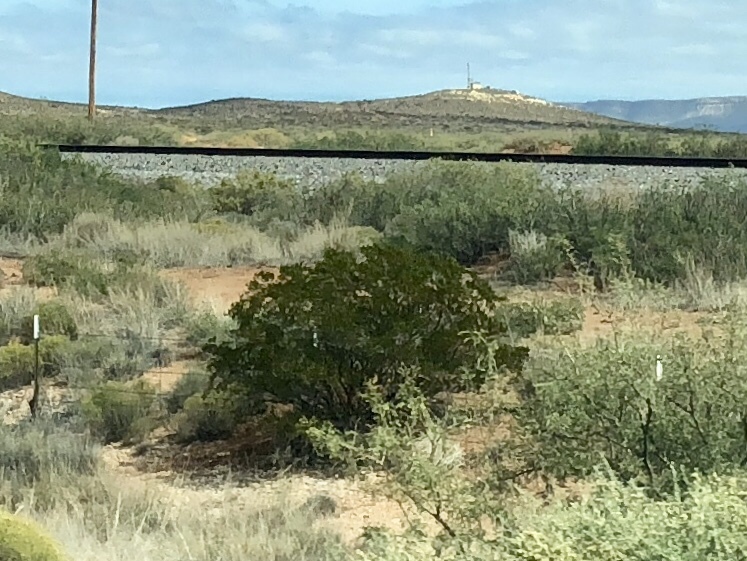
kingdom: Plantae
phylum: Tracheophyta
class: Magnoliopsida
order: Zygophyllales
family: Zygophyllaceae
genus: Larrea
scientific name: Larrea tridentata
